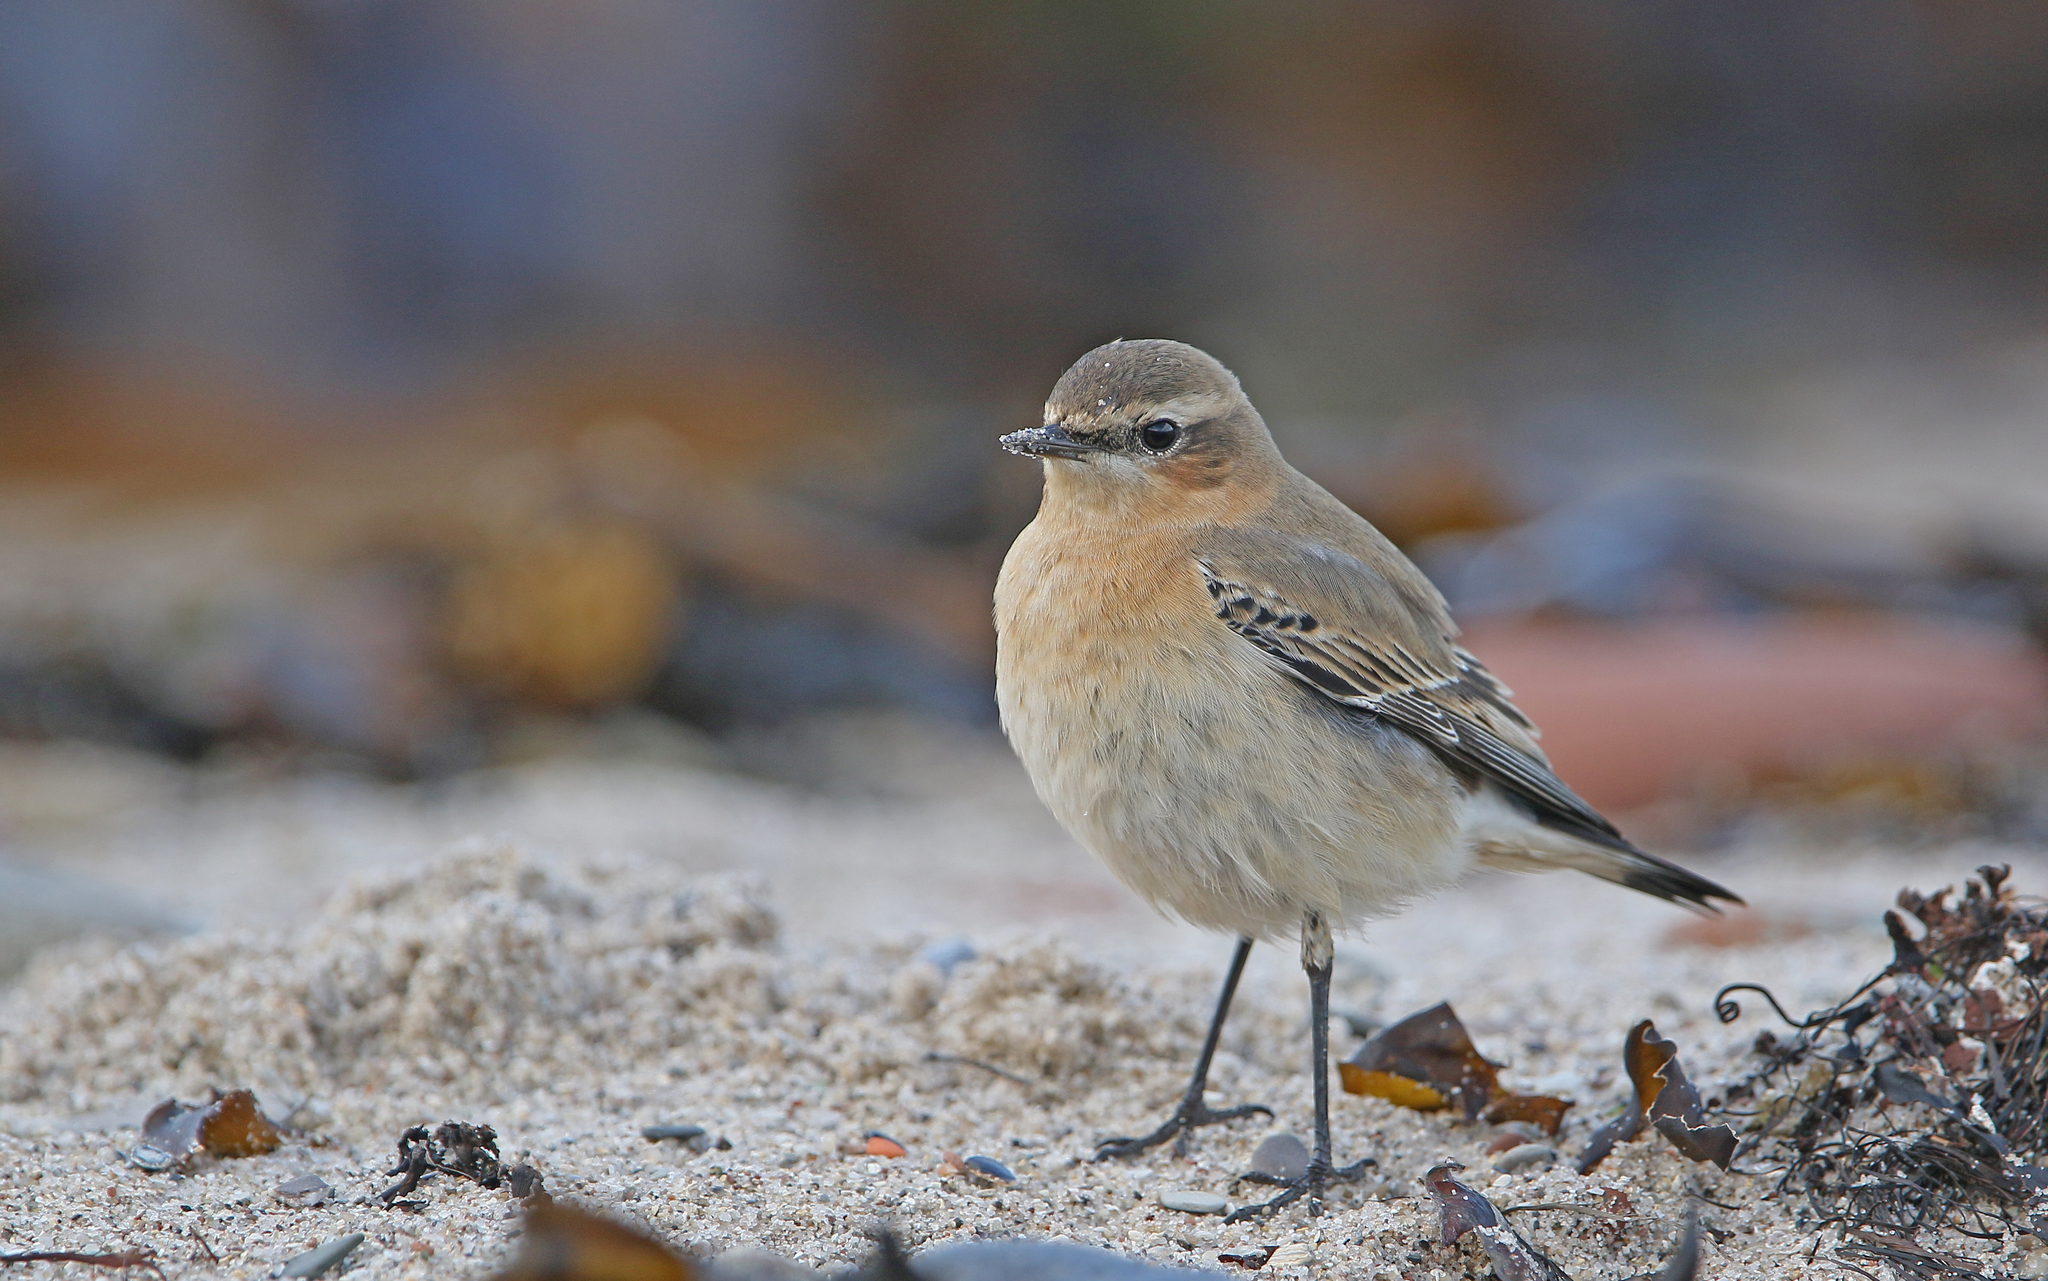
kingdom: Animalia
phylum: Chordata
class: Aves
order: Passeriformes
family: Muscicapidae
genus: Oenanthe
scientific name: Oenanthe oenanthe
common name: Northern wheatear
